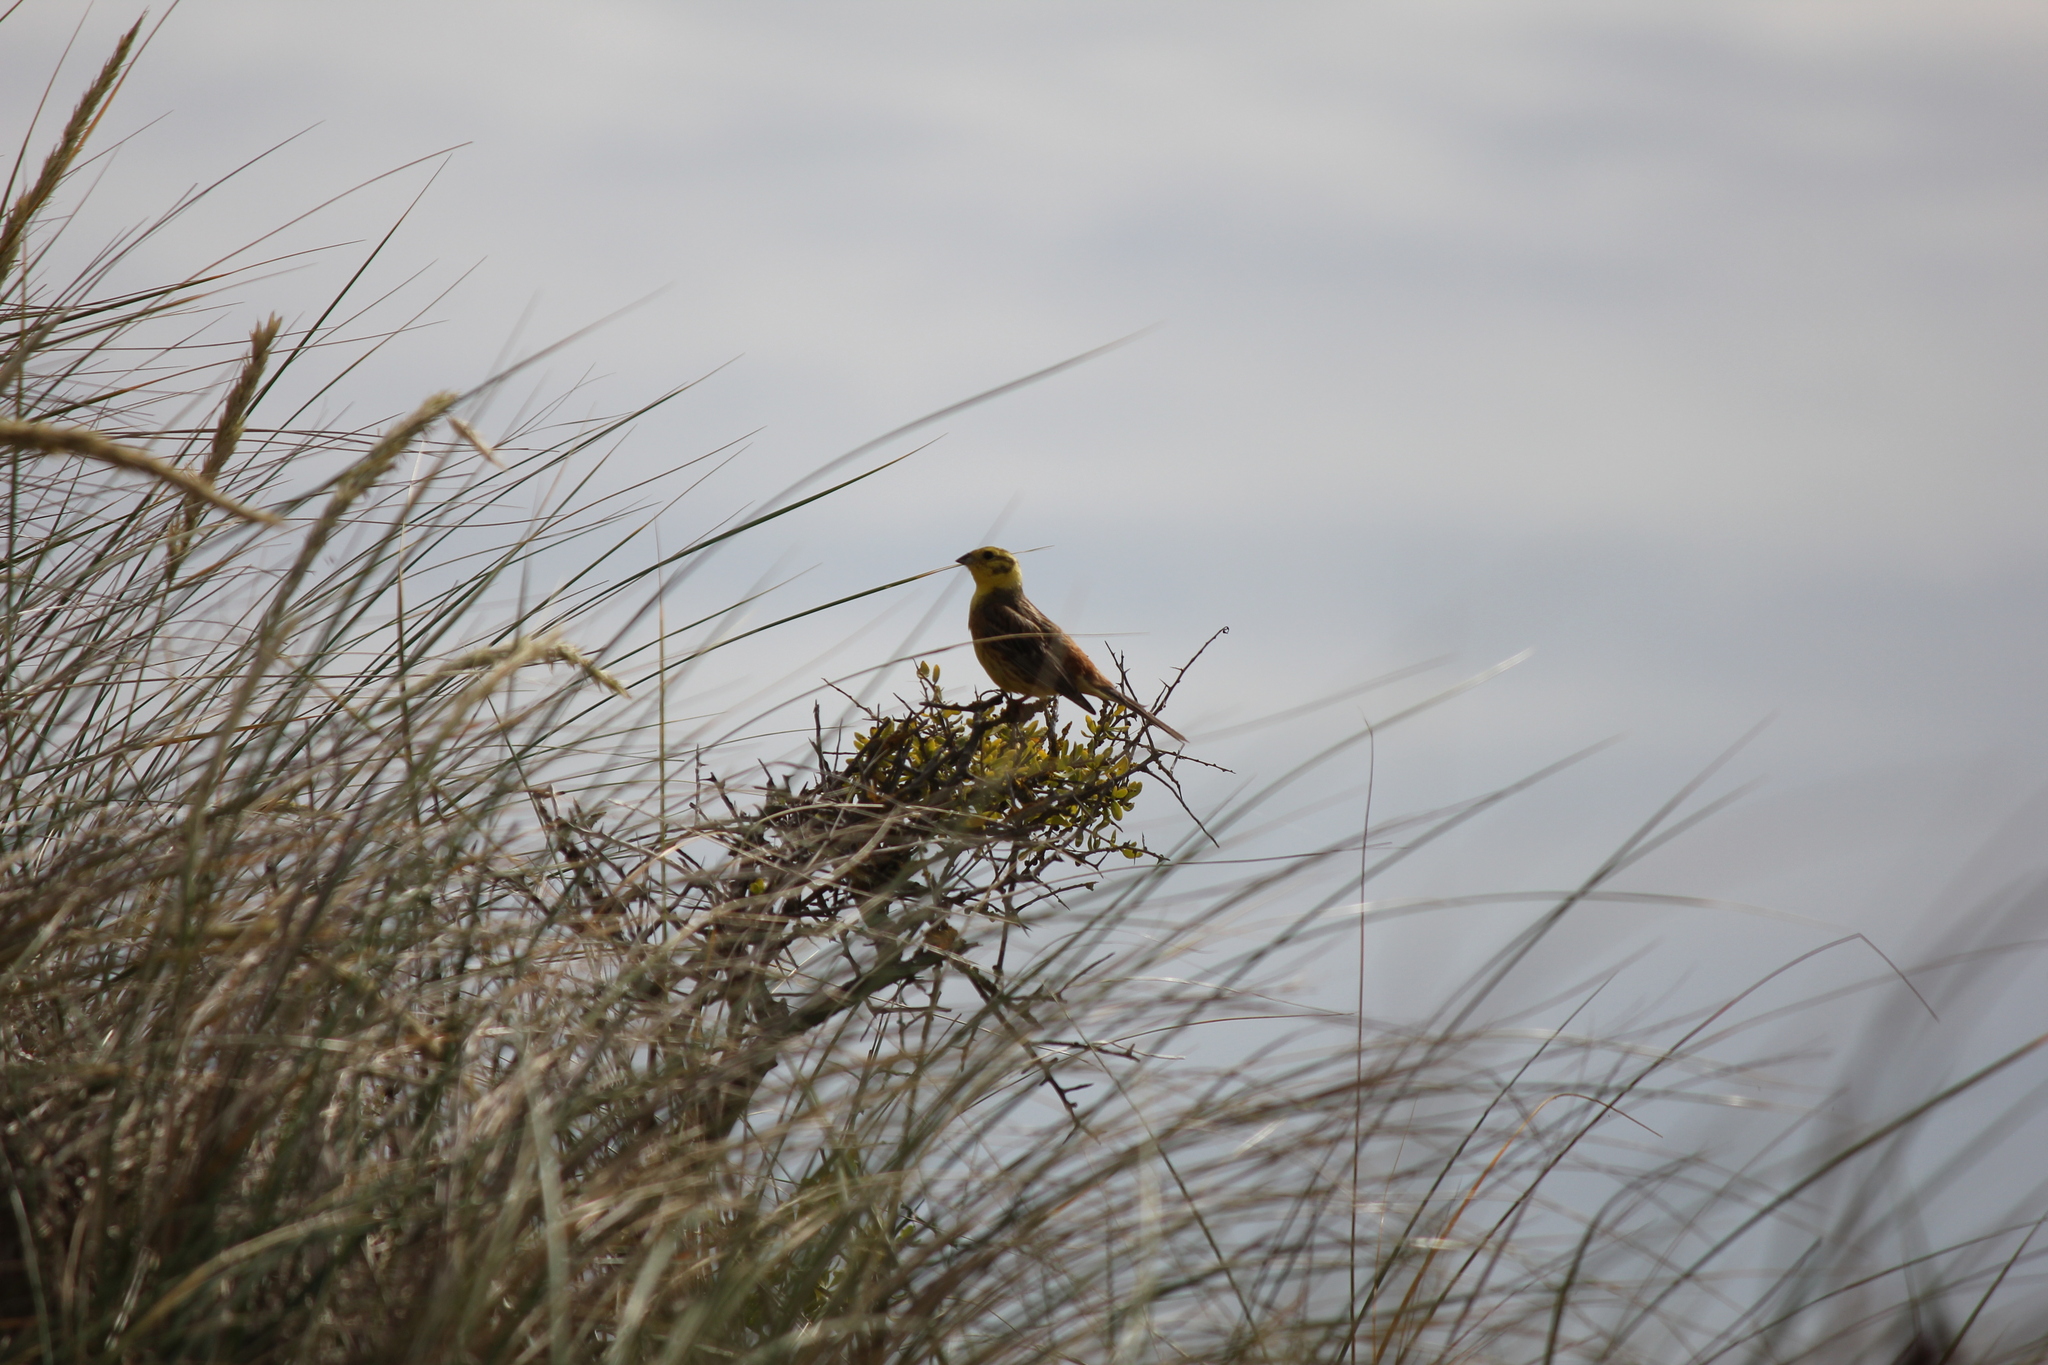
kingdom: Animalia
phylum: Chordata
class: Aves
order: Passeriformes
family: Emberizidae
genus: Emberiza
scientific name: Emberiza citrinella
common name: Yellowhammer
